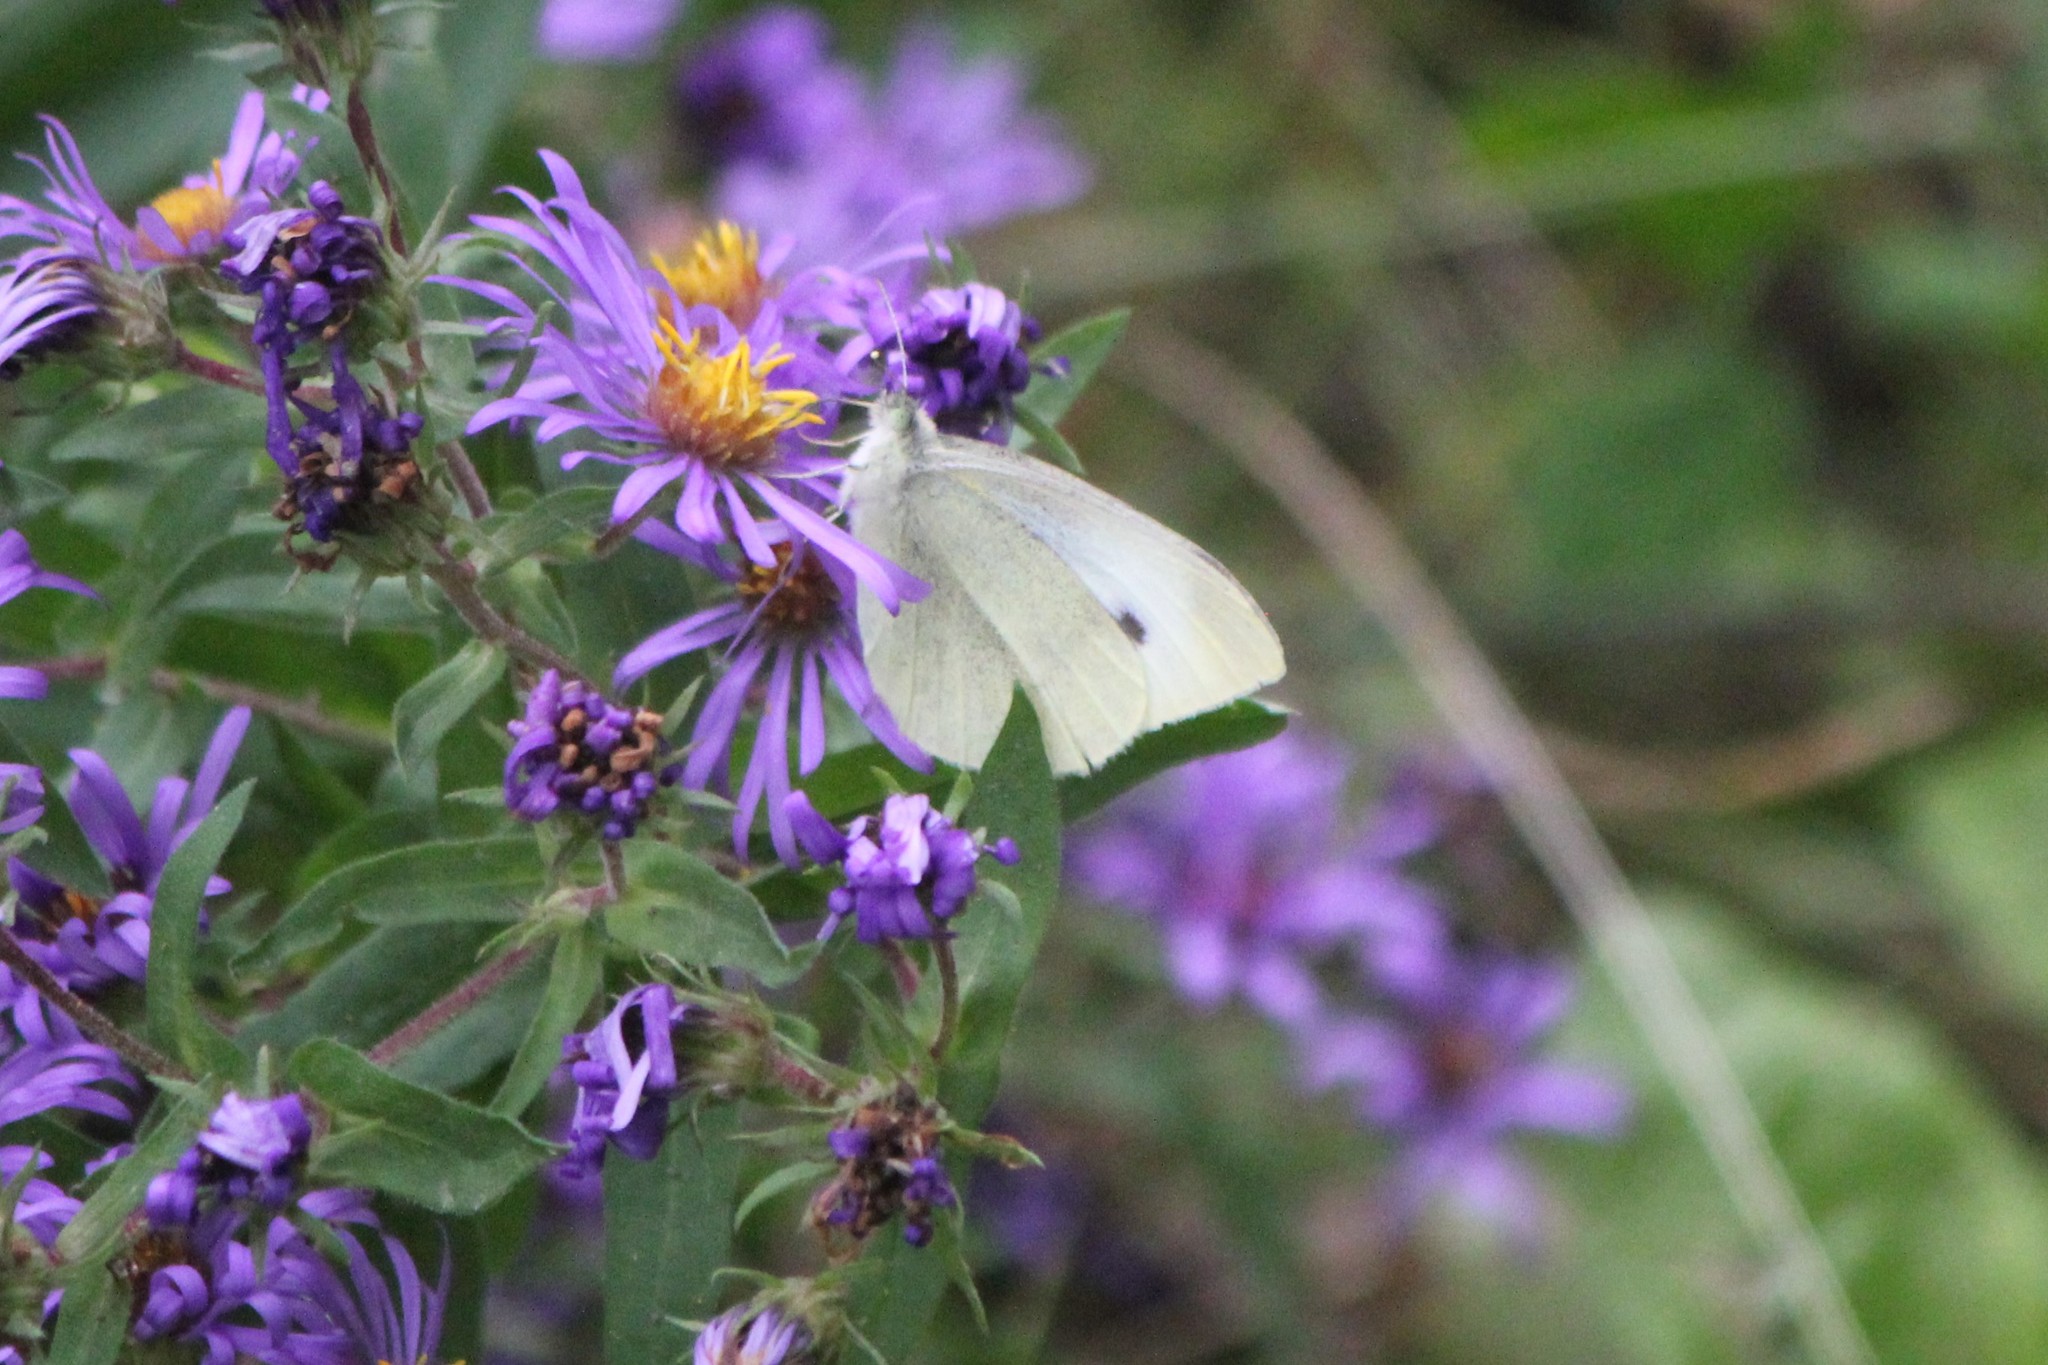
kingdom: Animalia
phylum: Arthropoda
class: Insecta
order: Lepidoptera
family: Pieridae
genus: Pieris
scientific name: Pieris rapae
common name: Small white
